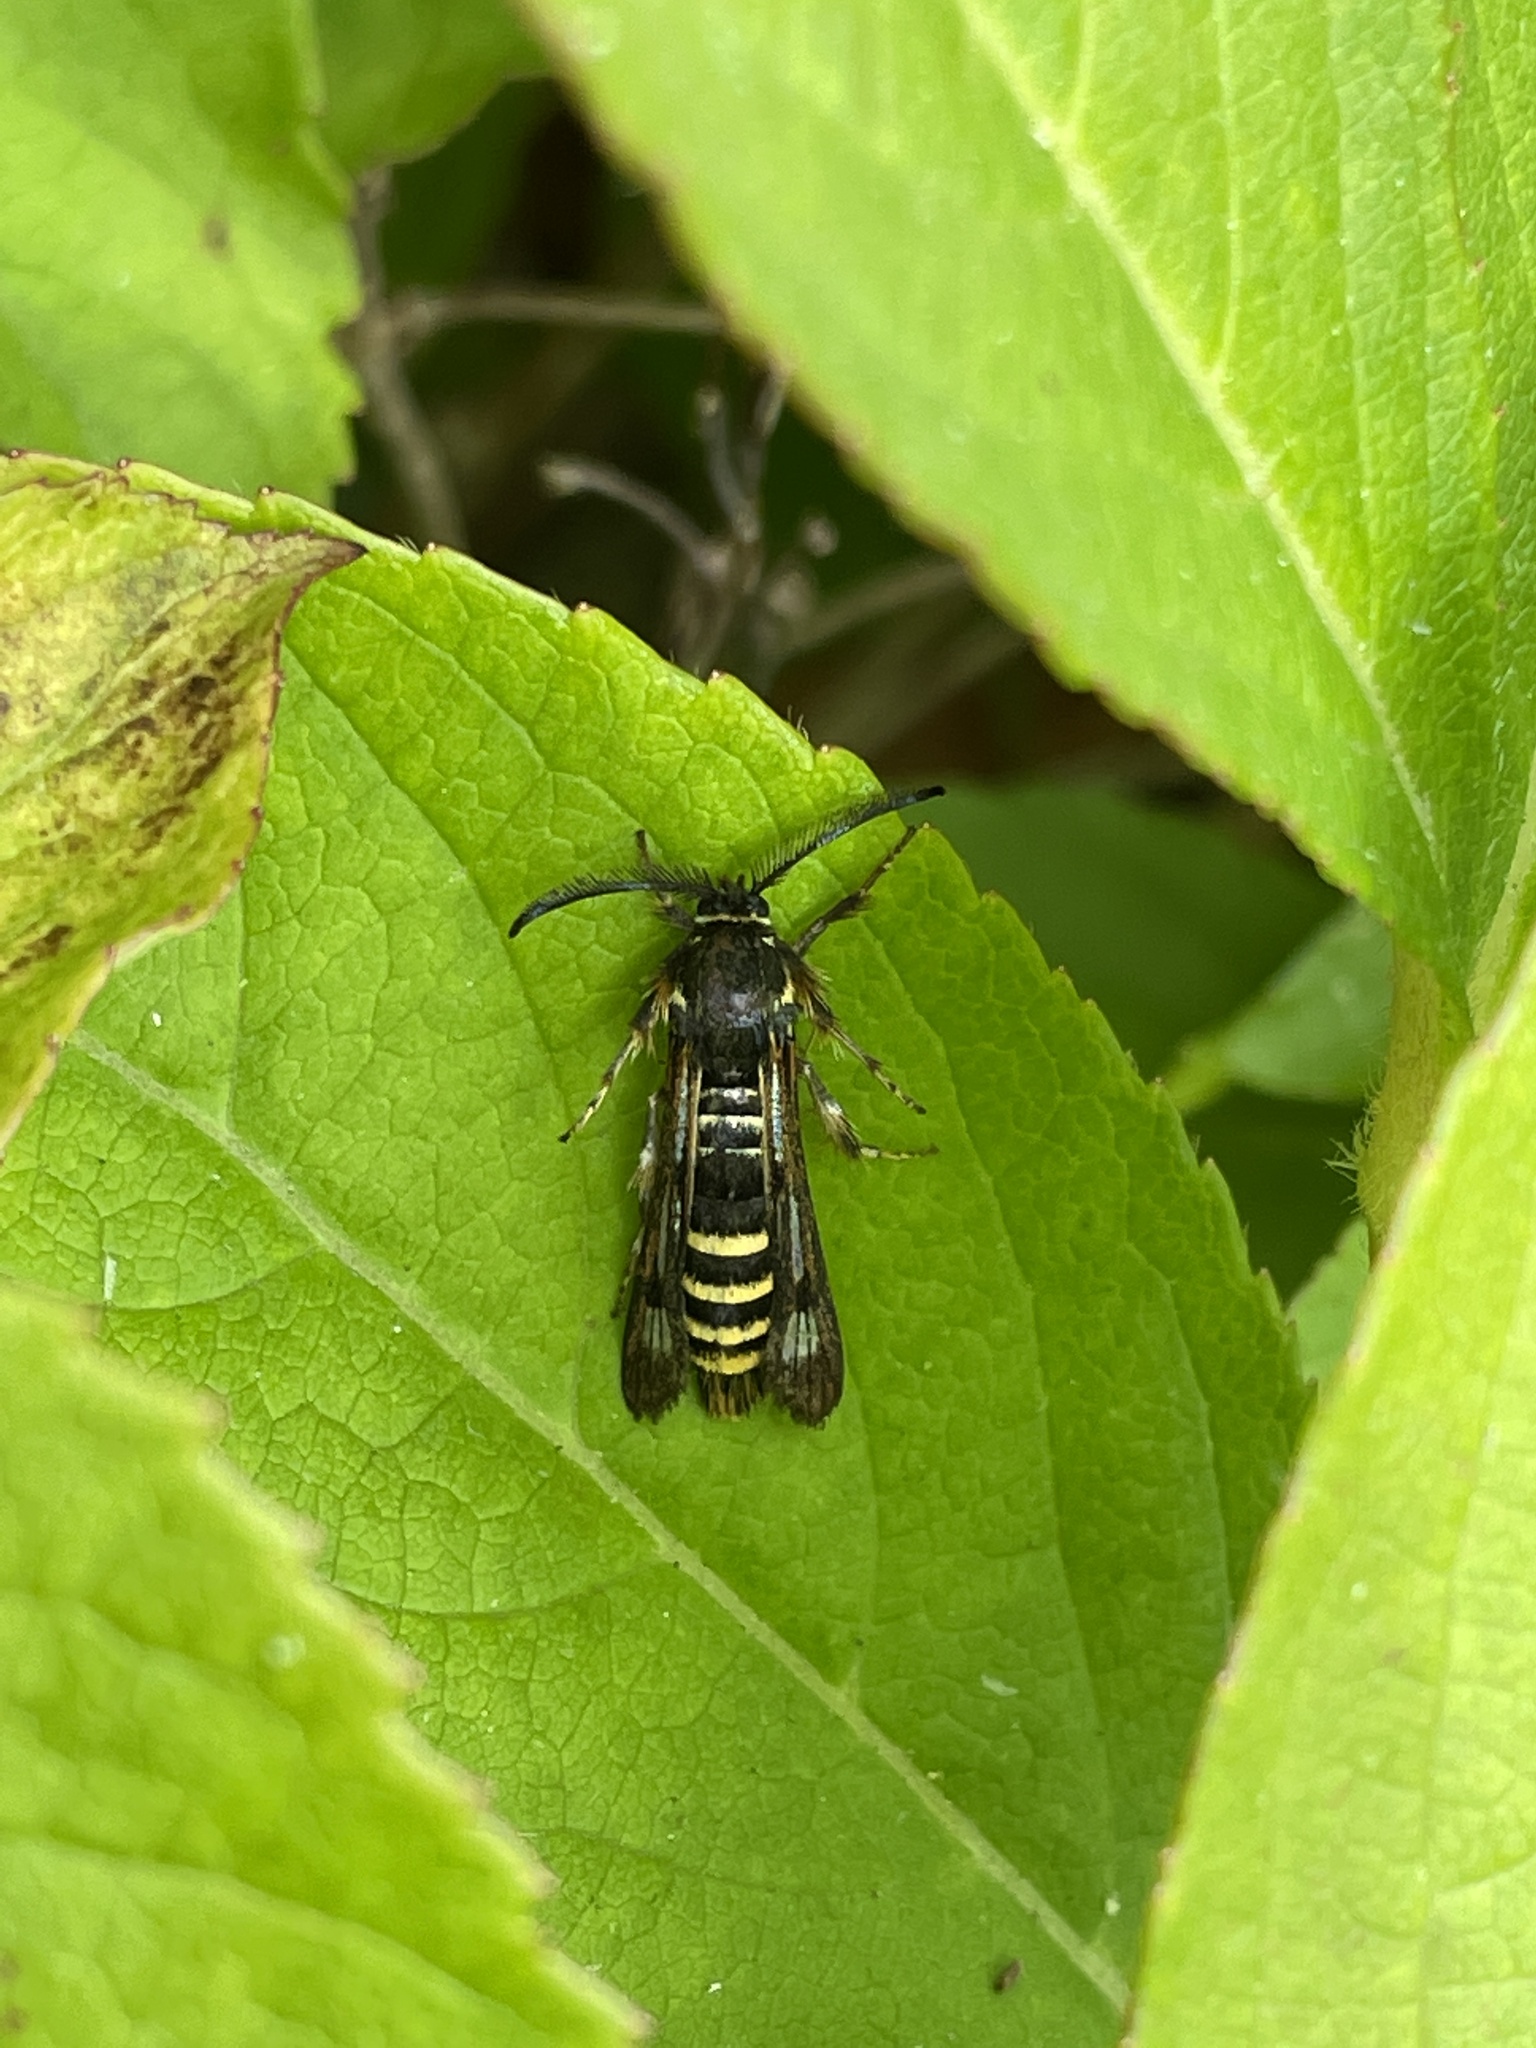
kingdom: Animalia
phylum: Arthropoda
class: Insecta
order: Lepidoptera
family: Sesiidae
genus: Pennisetia
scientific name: Pennisetia hylaeiformis
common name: Raspberry clearwing
